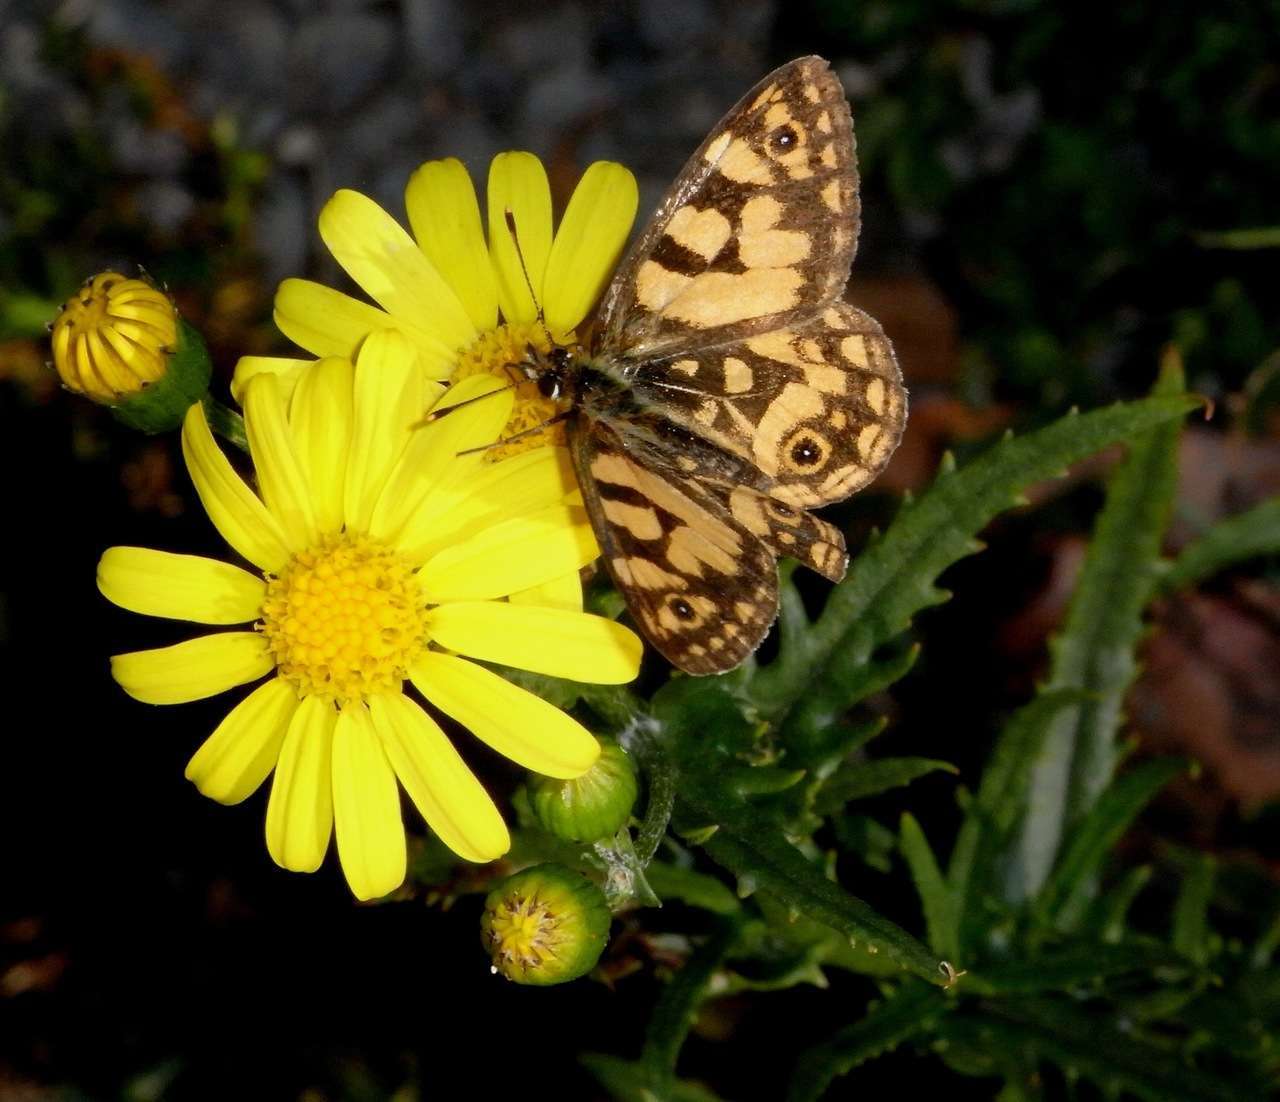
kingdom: Animalia
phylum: Arthropoda
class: Insecta
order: Lepidoptera
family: Nymphalidae
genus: Oreixenica
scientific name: Oreixenica lathoniella
